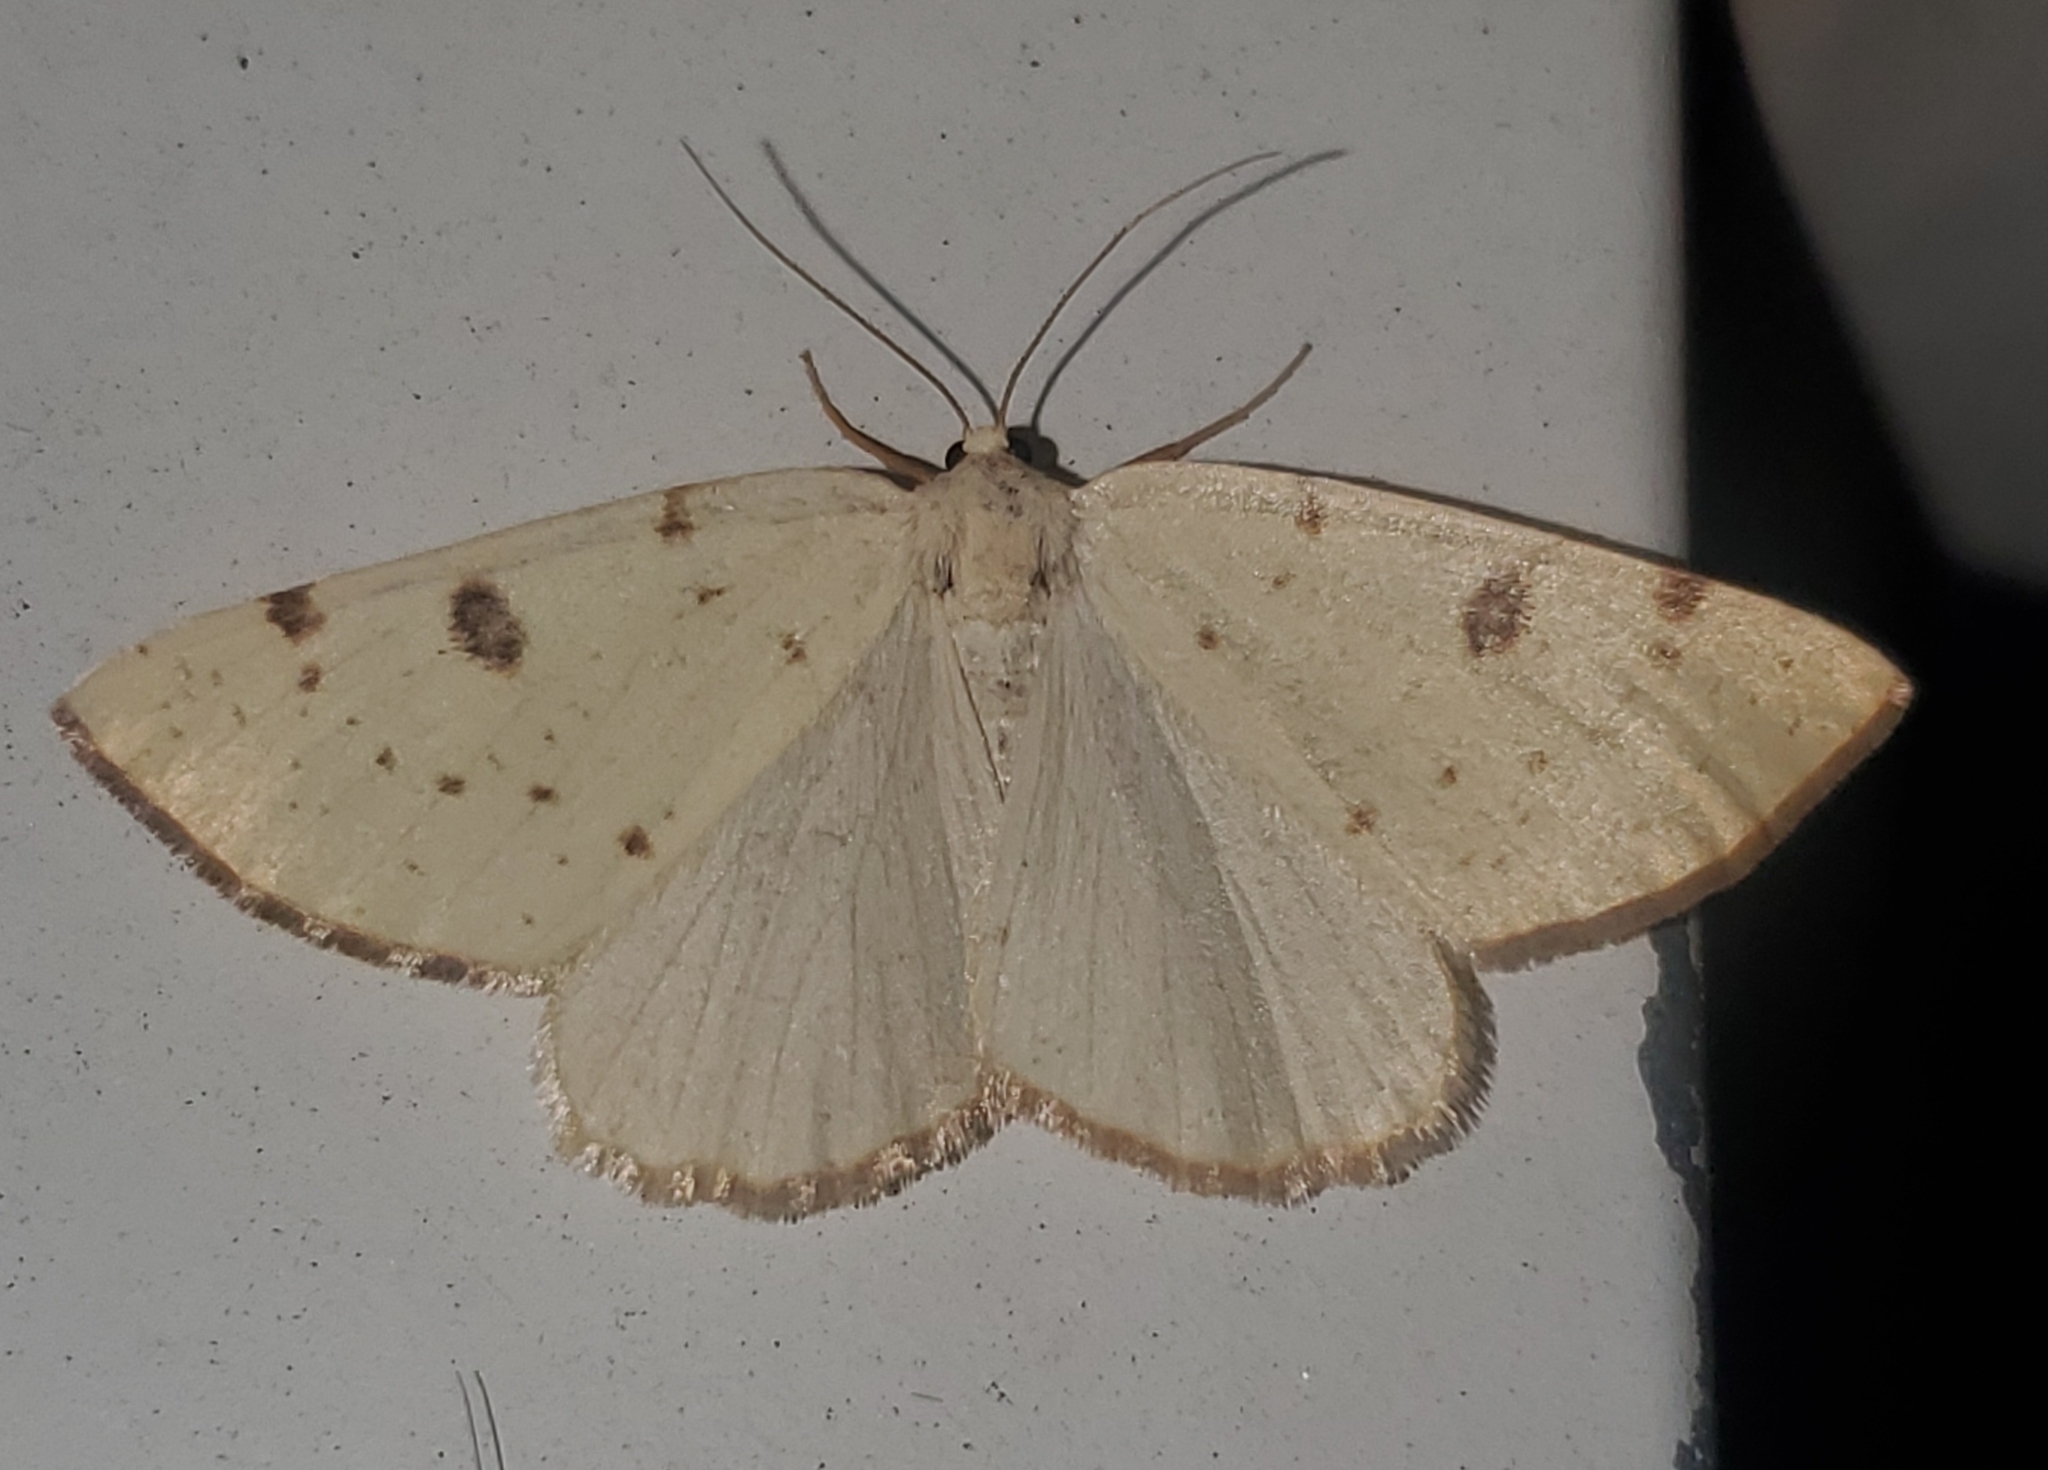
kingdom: Animalia
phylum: Arthropoda
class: Insecta
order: Lepidoptera
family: Geometridae
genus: Hesperumia
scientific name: Hesperumia sulphuraria
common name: Sulphur moth
